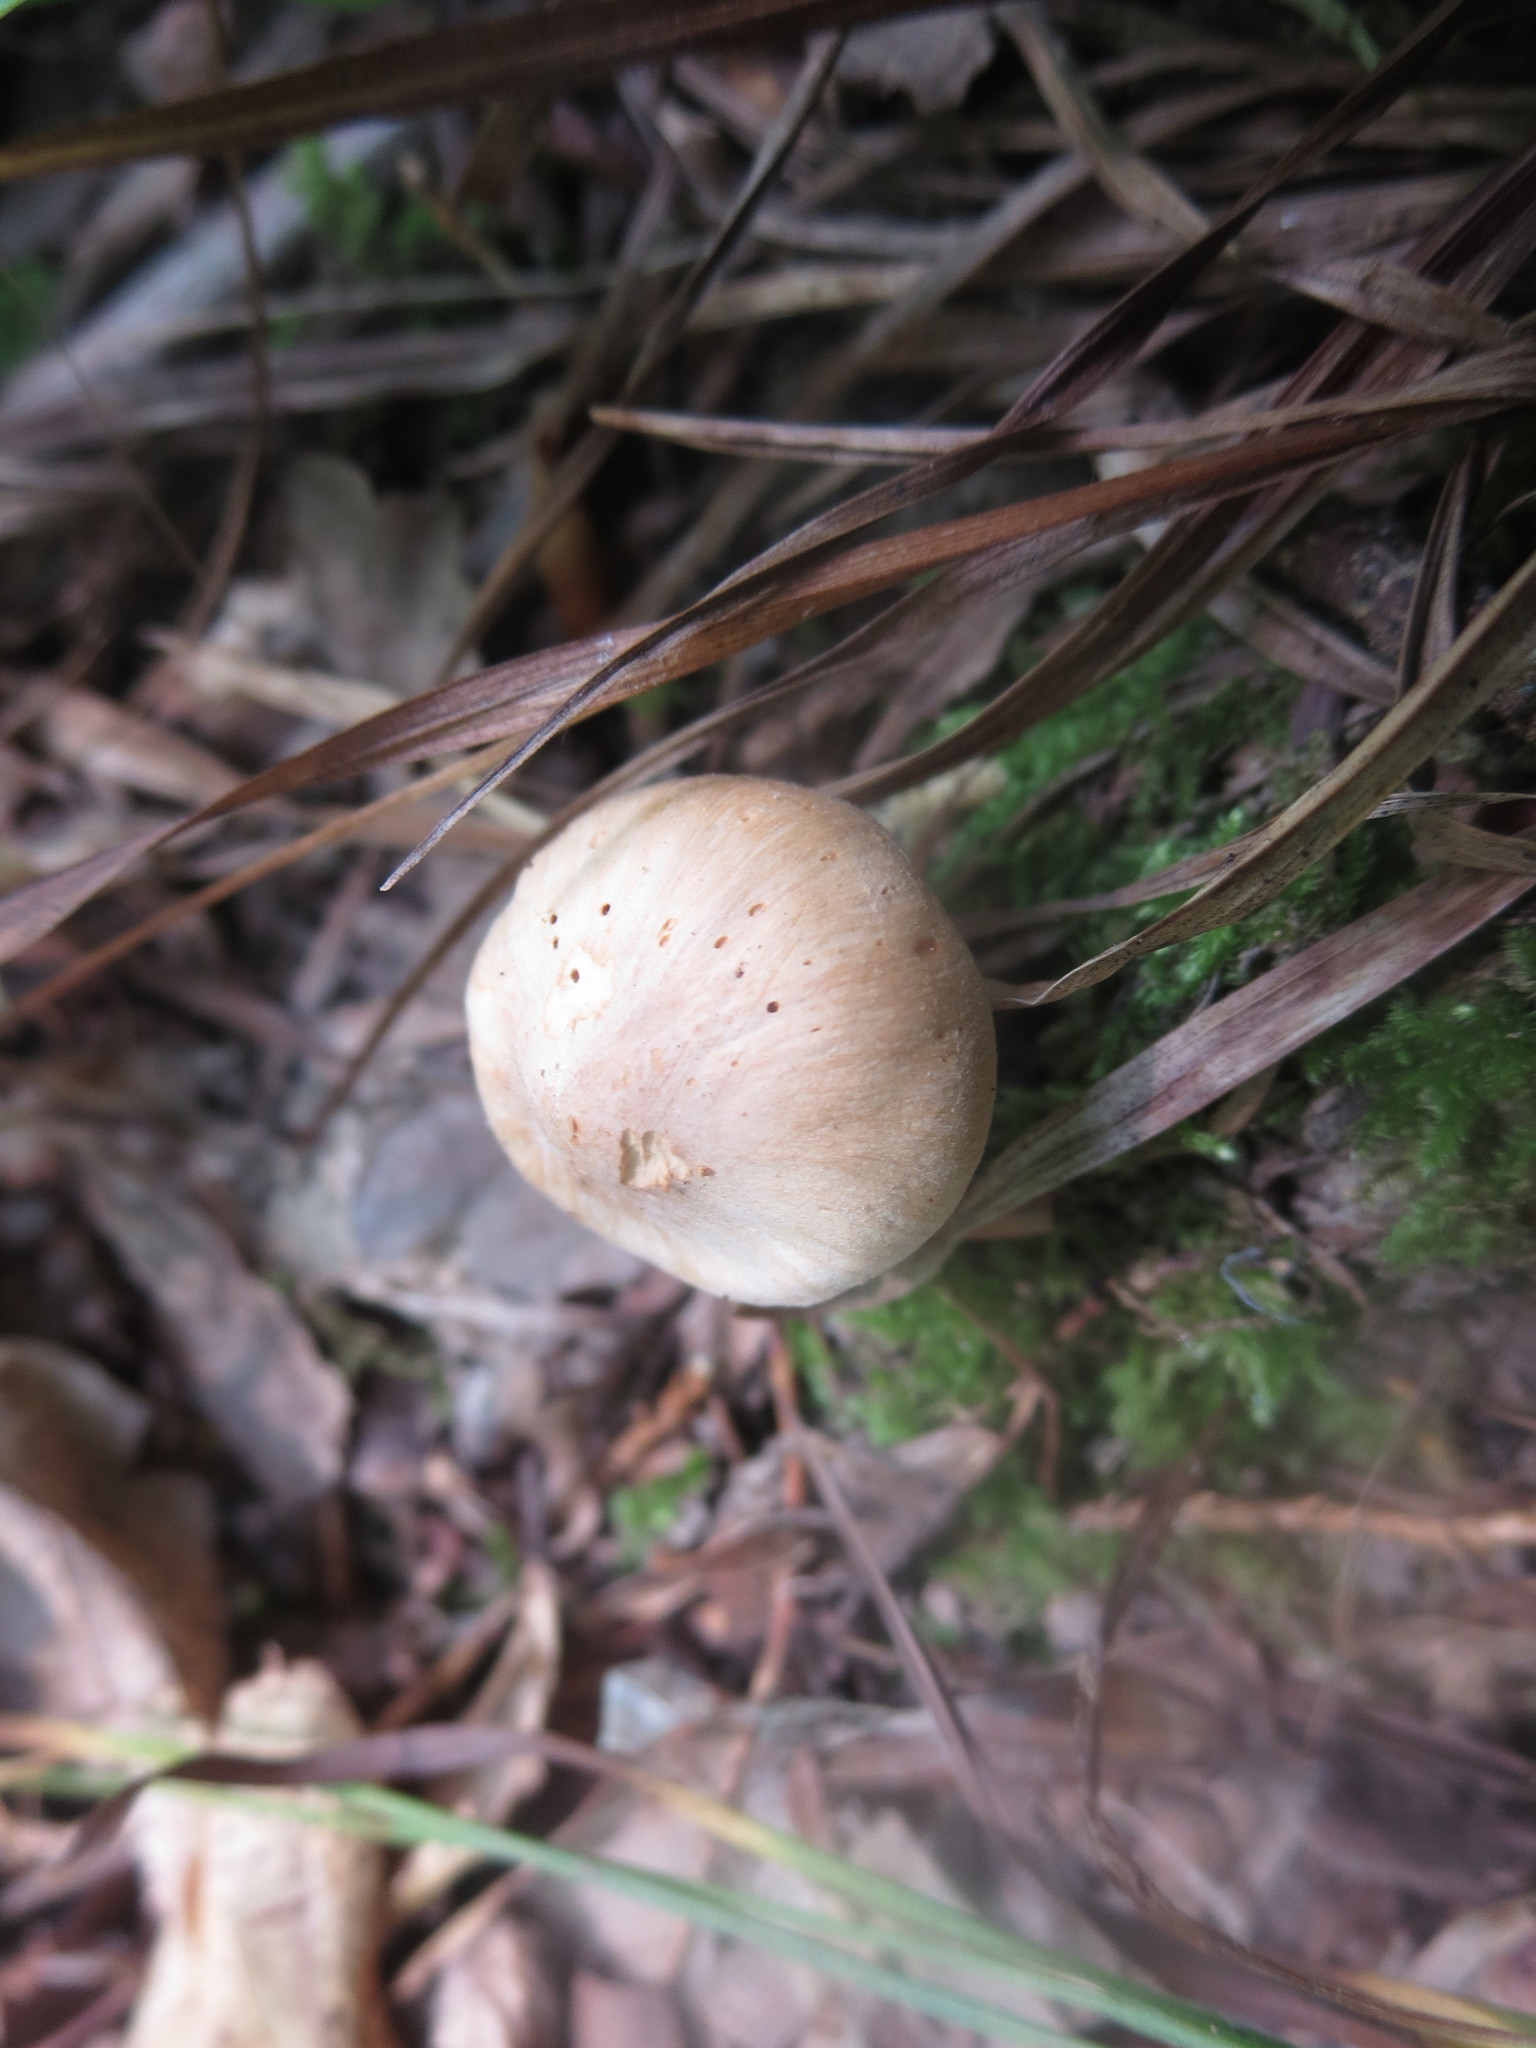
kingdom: Fungi
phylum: Basidiomycota
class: Agaricomycetes
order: Agaricales
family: Hygrophoraceae
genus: Cuphophyllus
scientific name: Cuphophyllus pratensis
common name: Meadow waxcap
